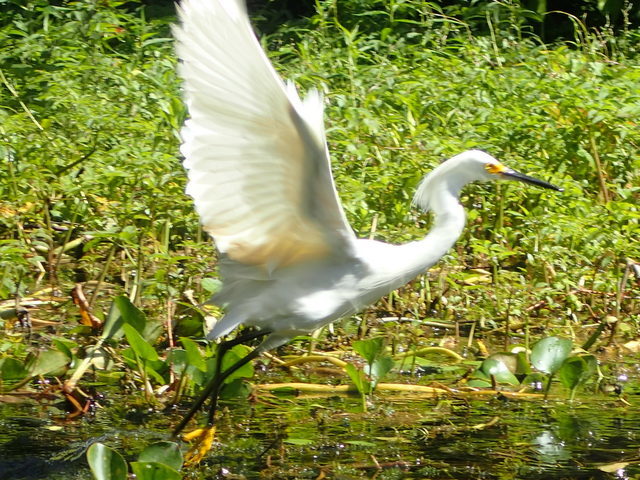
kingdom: Animalia
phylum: Chordata
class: Aves
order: Pelecaniformes
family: Ardeidae
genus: Egretta
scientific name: Egretta thula
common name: Snowy egret
